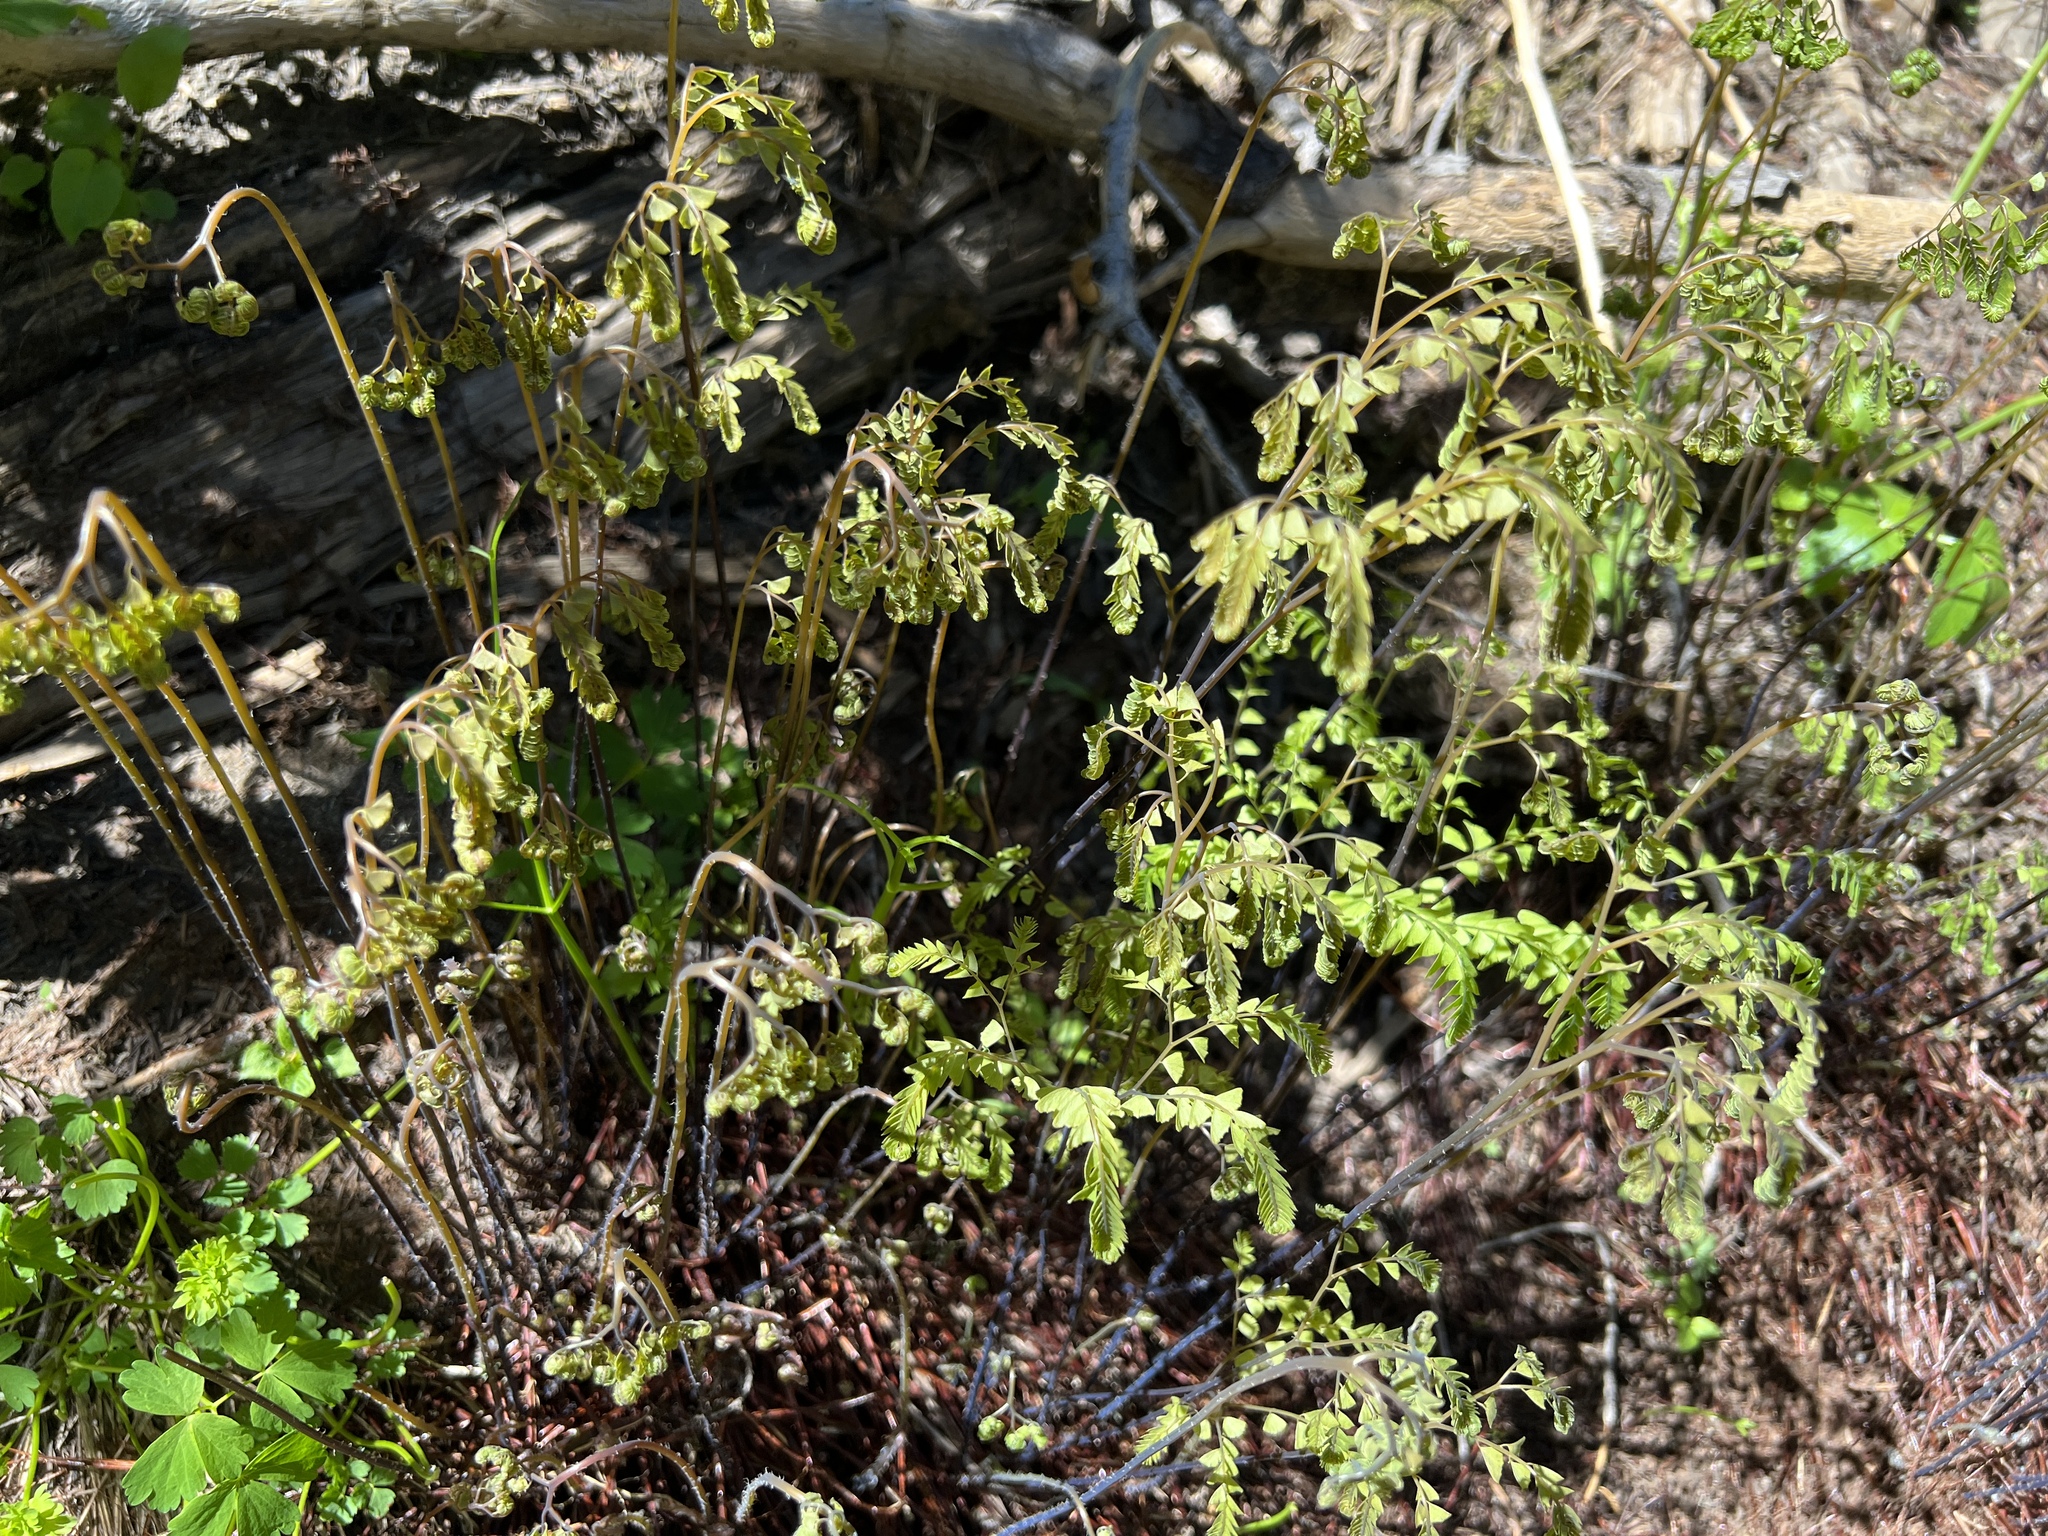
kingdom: Plantae
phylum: Tracheophyta
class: Polypodiopsida
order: Polypodiales
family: Pteridaceae
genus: Adiantum
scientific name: Adiantum aleuticum
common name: Aleutian maidenhair fern
